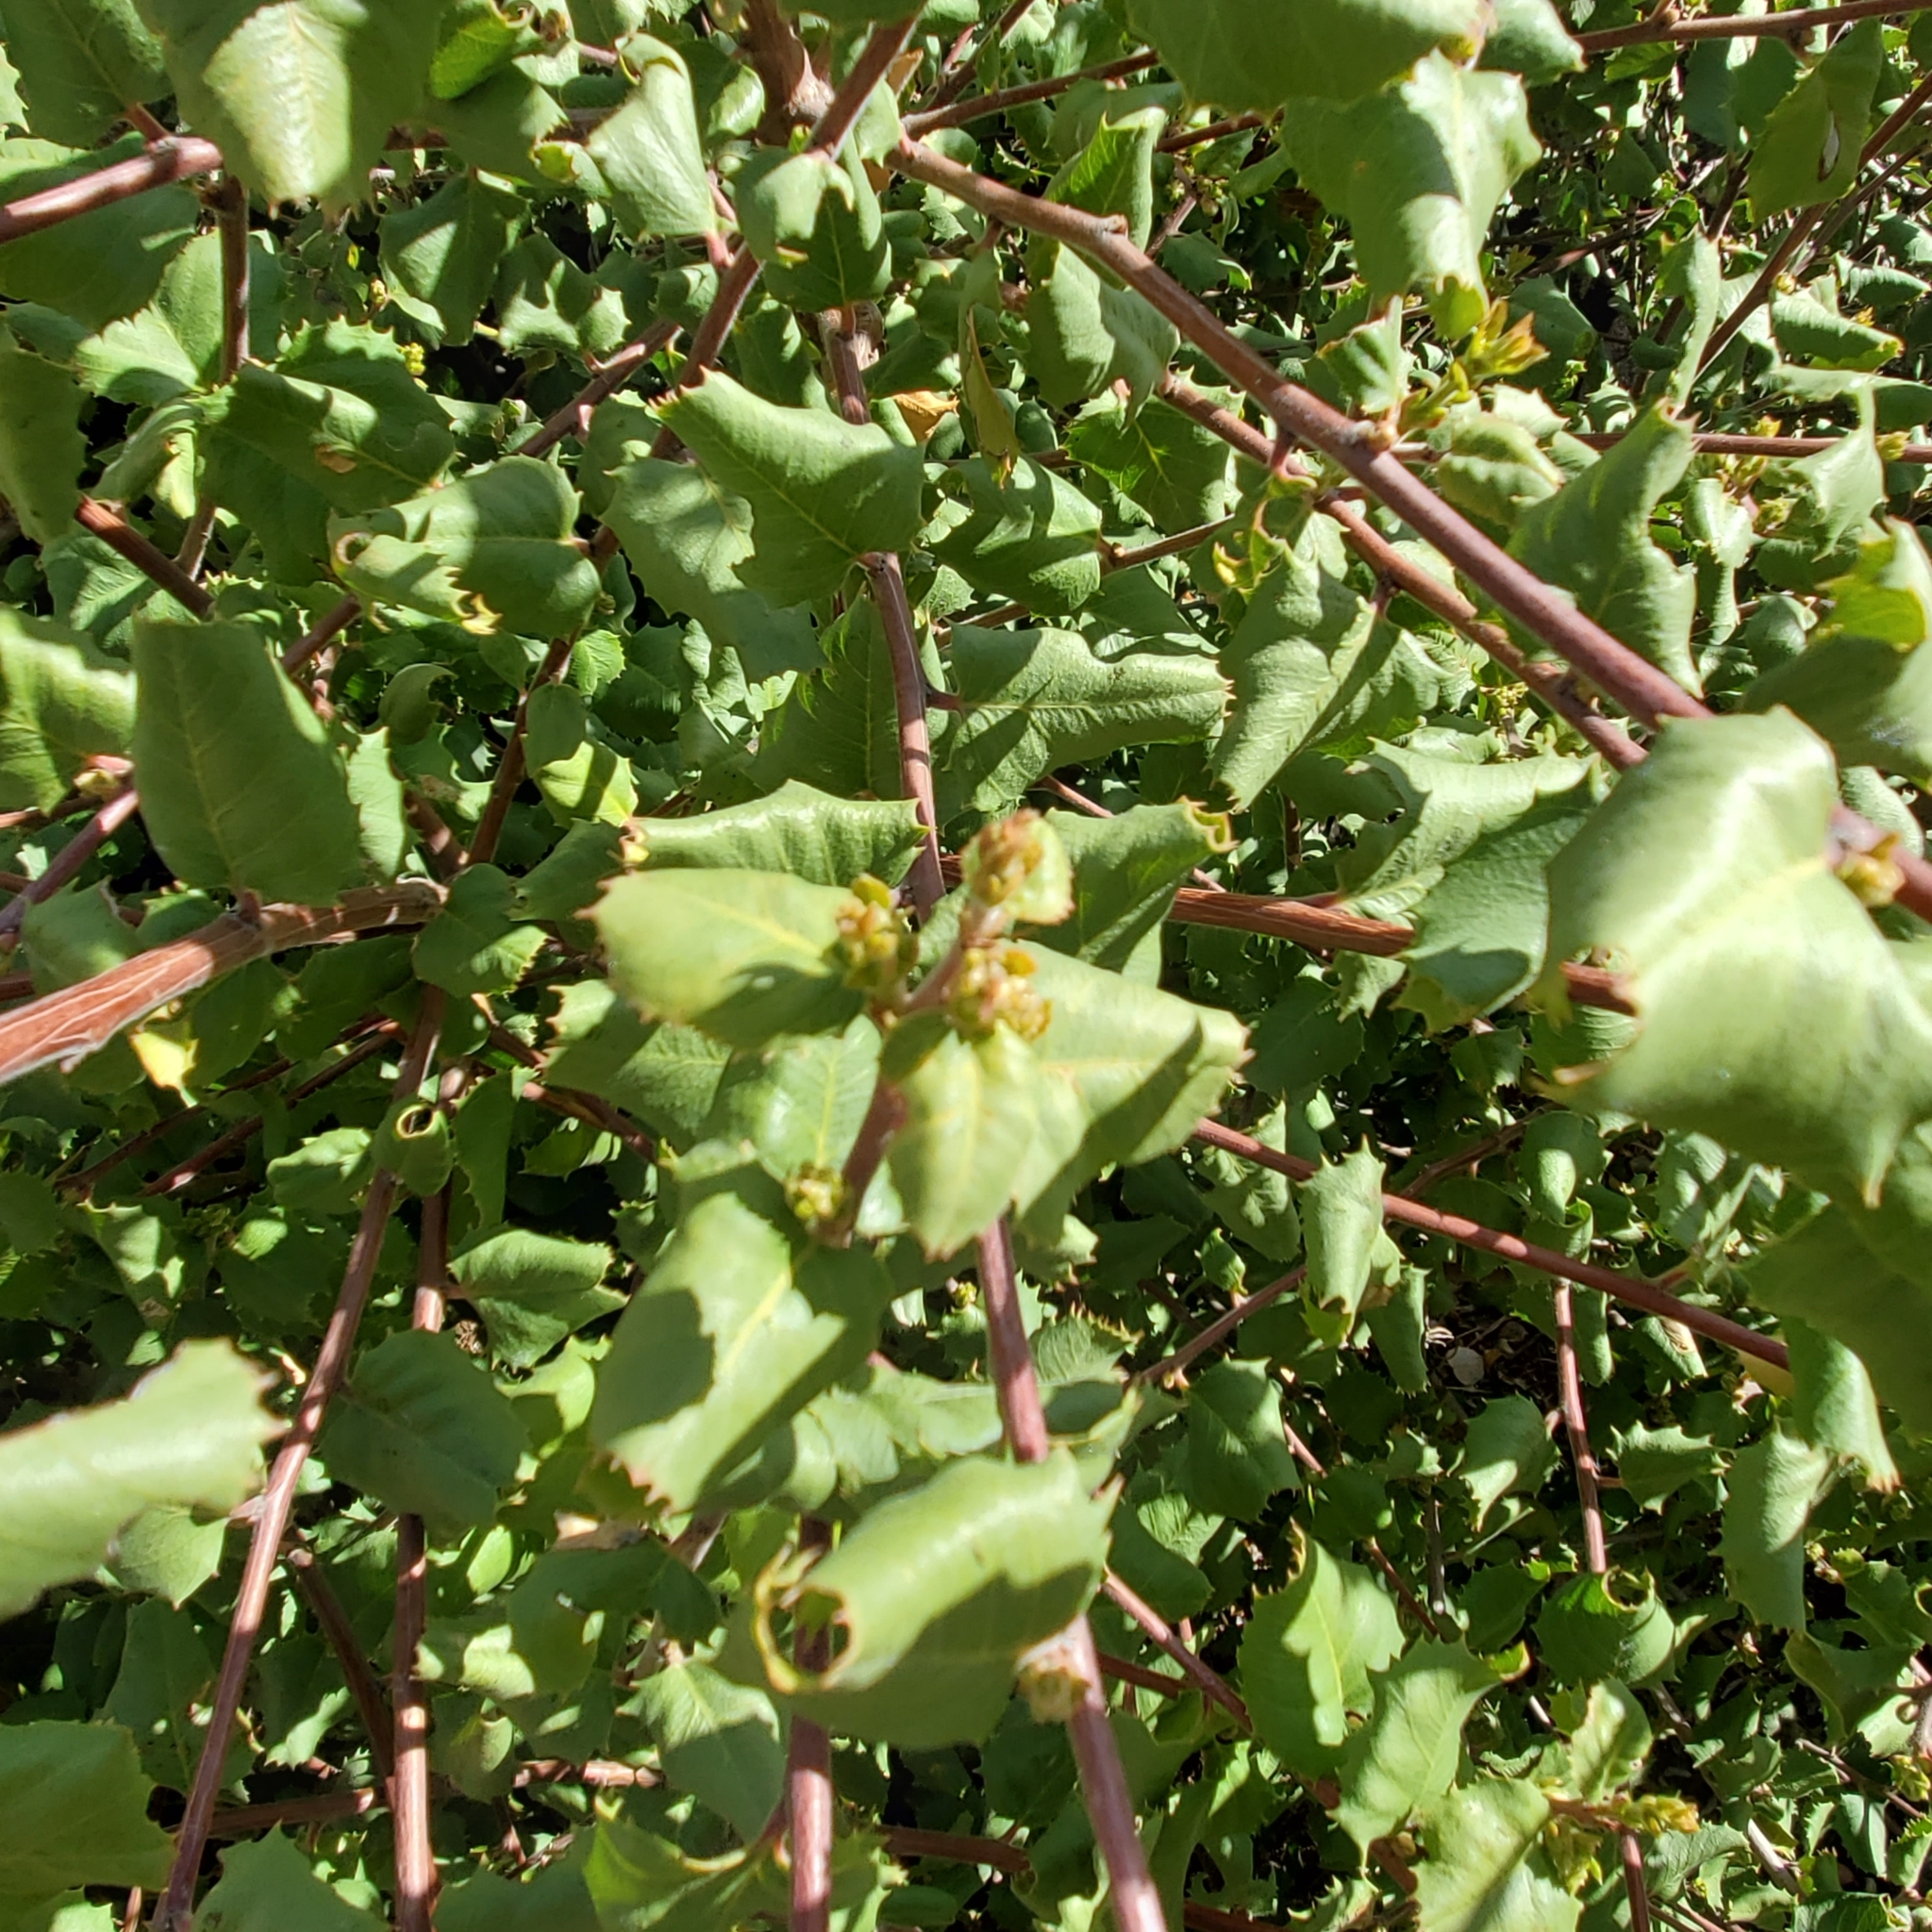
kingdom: Plantae
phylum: Tracheophyta
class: Magnoliopsida
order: Rosales
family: Rhamnaceae
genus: Endotropis
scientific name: Endotropis crocea
